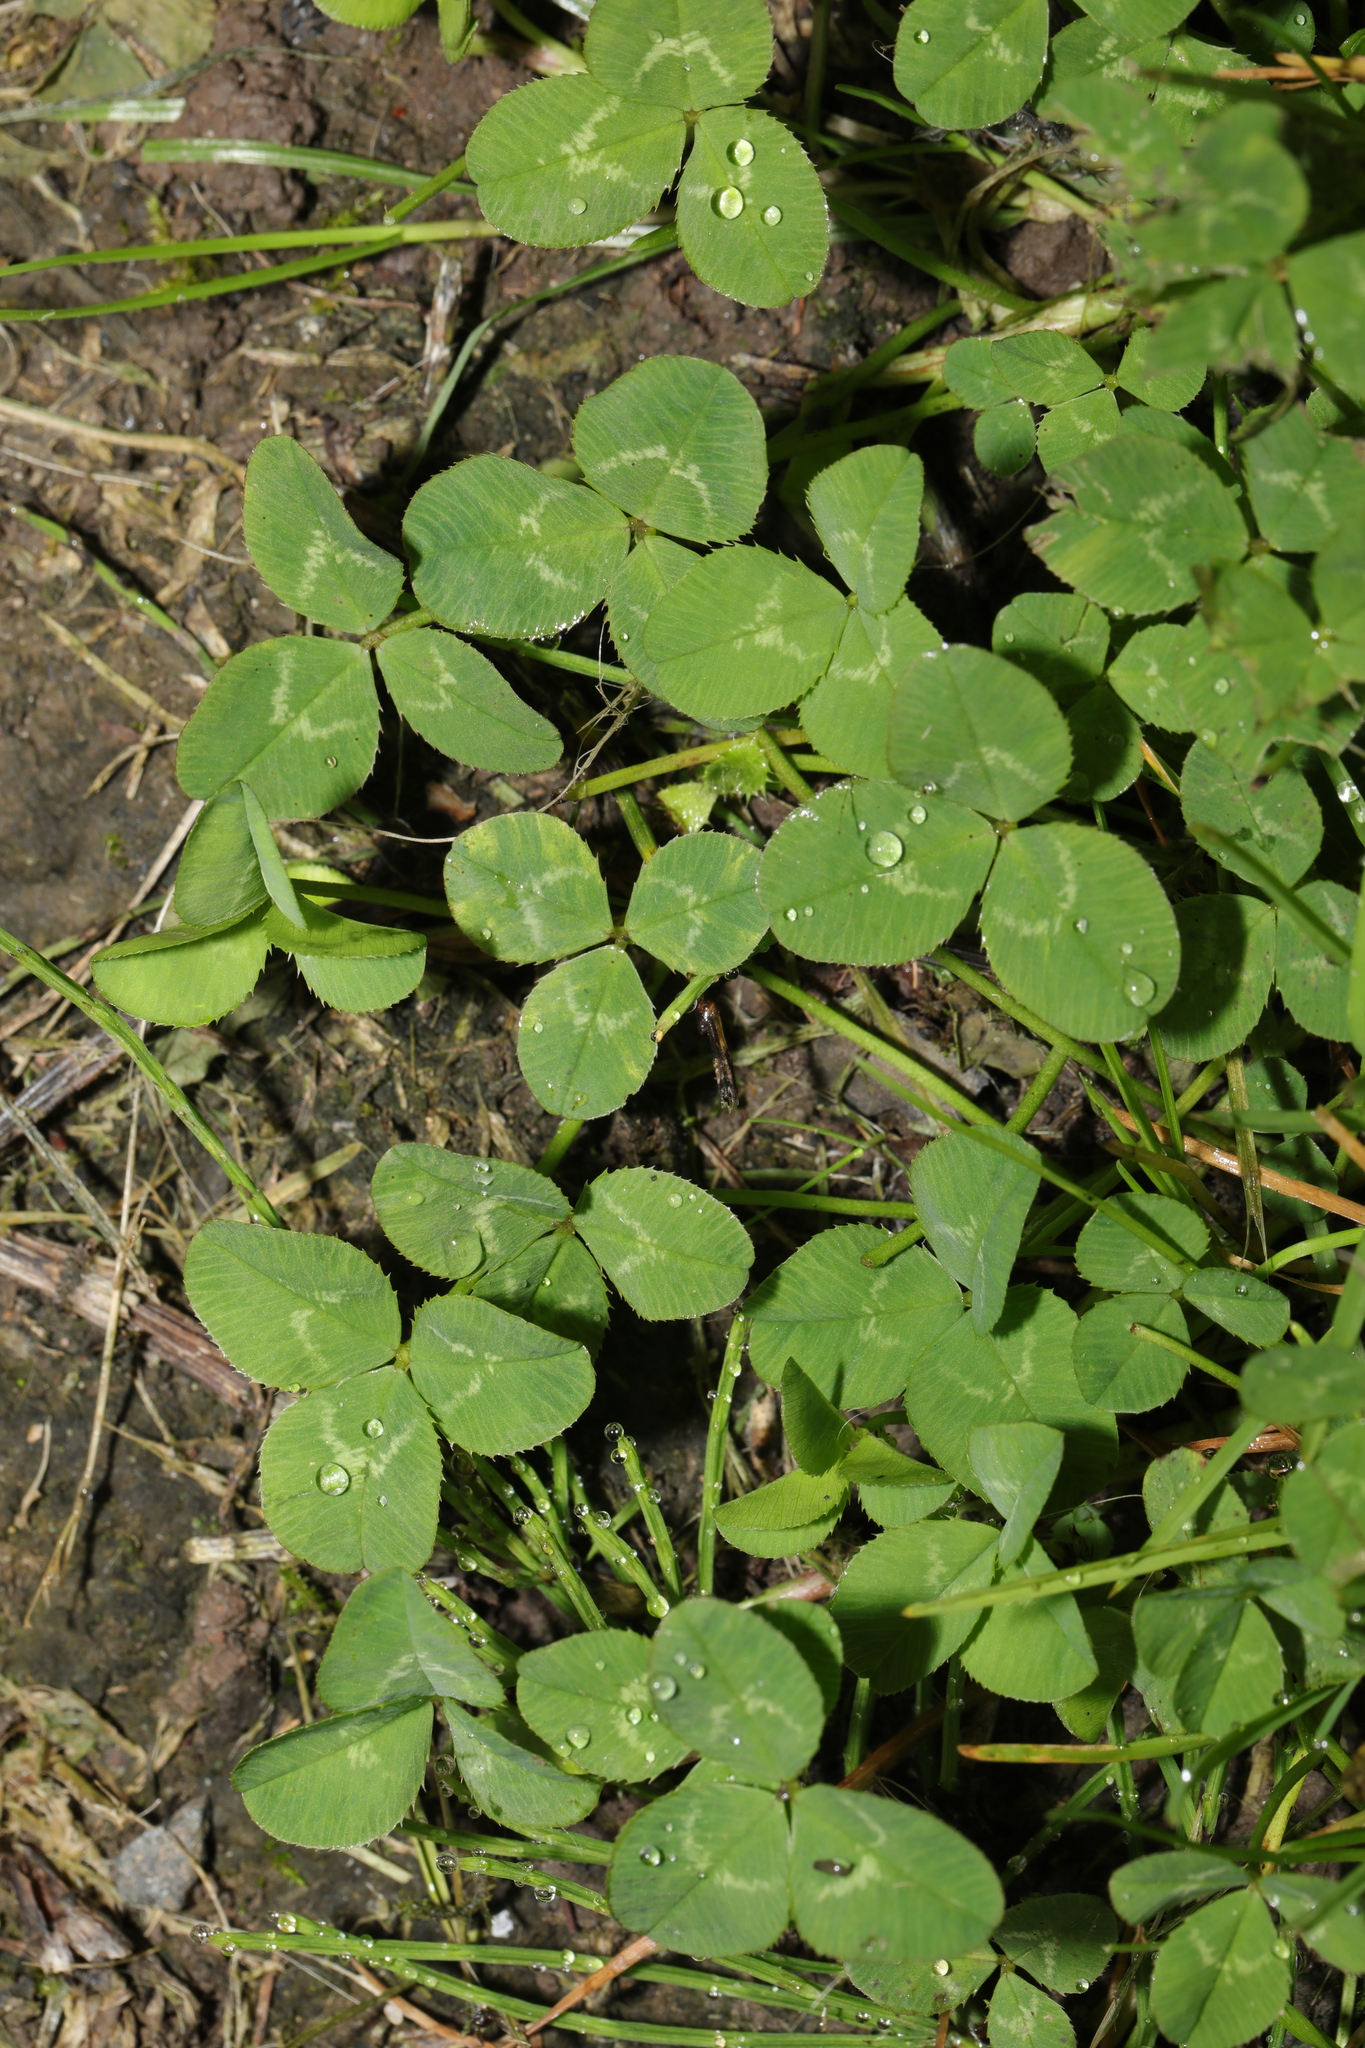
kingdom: Plantae
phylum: Tracheophyta
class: Magnoliopsida
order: Fabales
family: Fabaceae
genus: Trifolium
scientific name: Trifolium repens
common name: White clover
